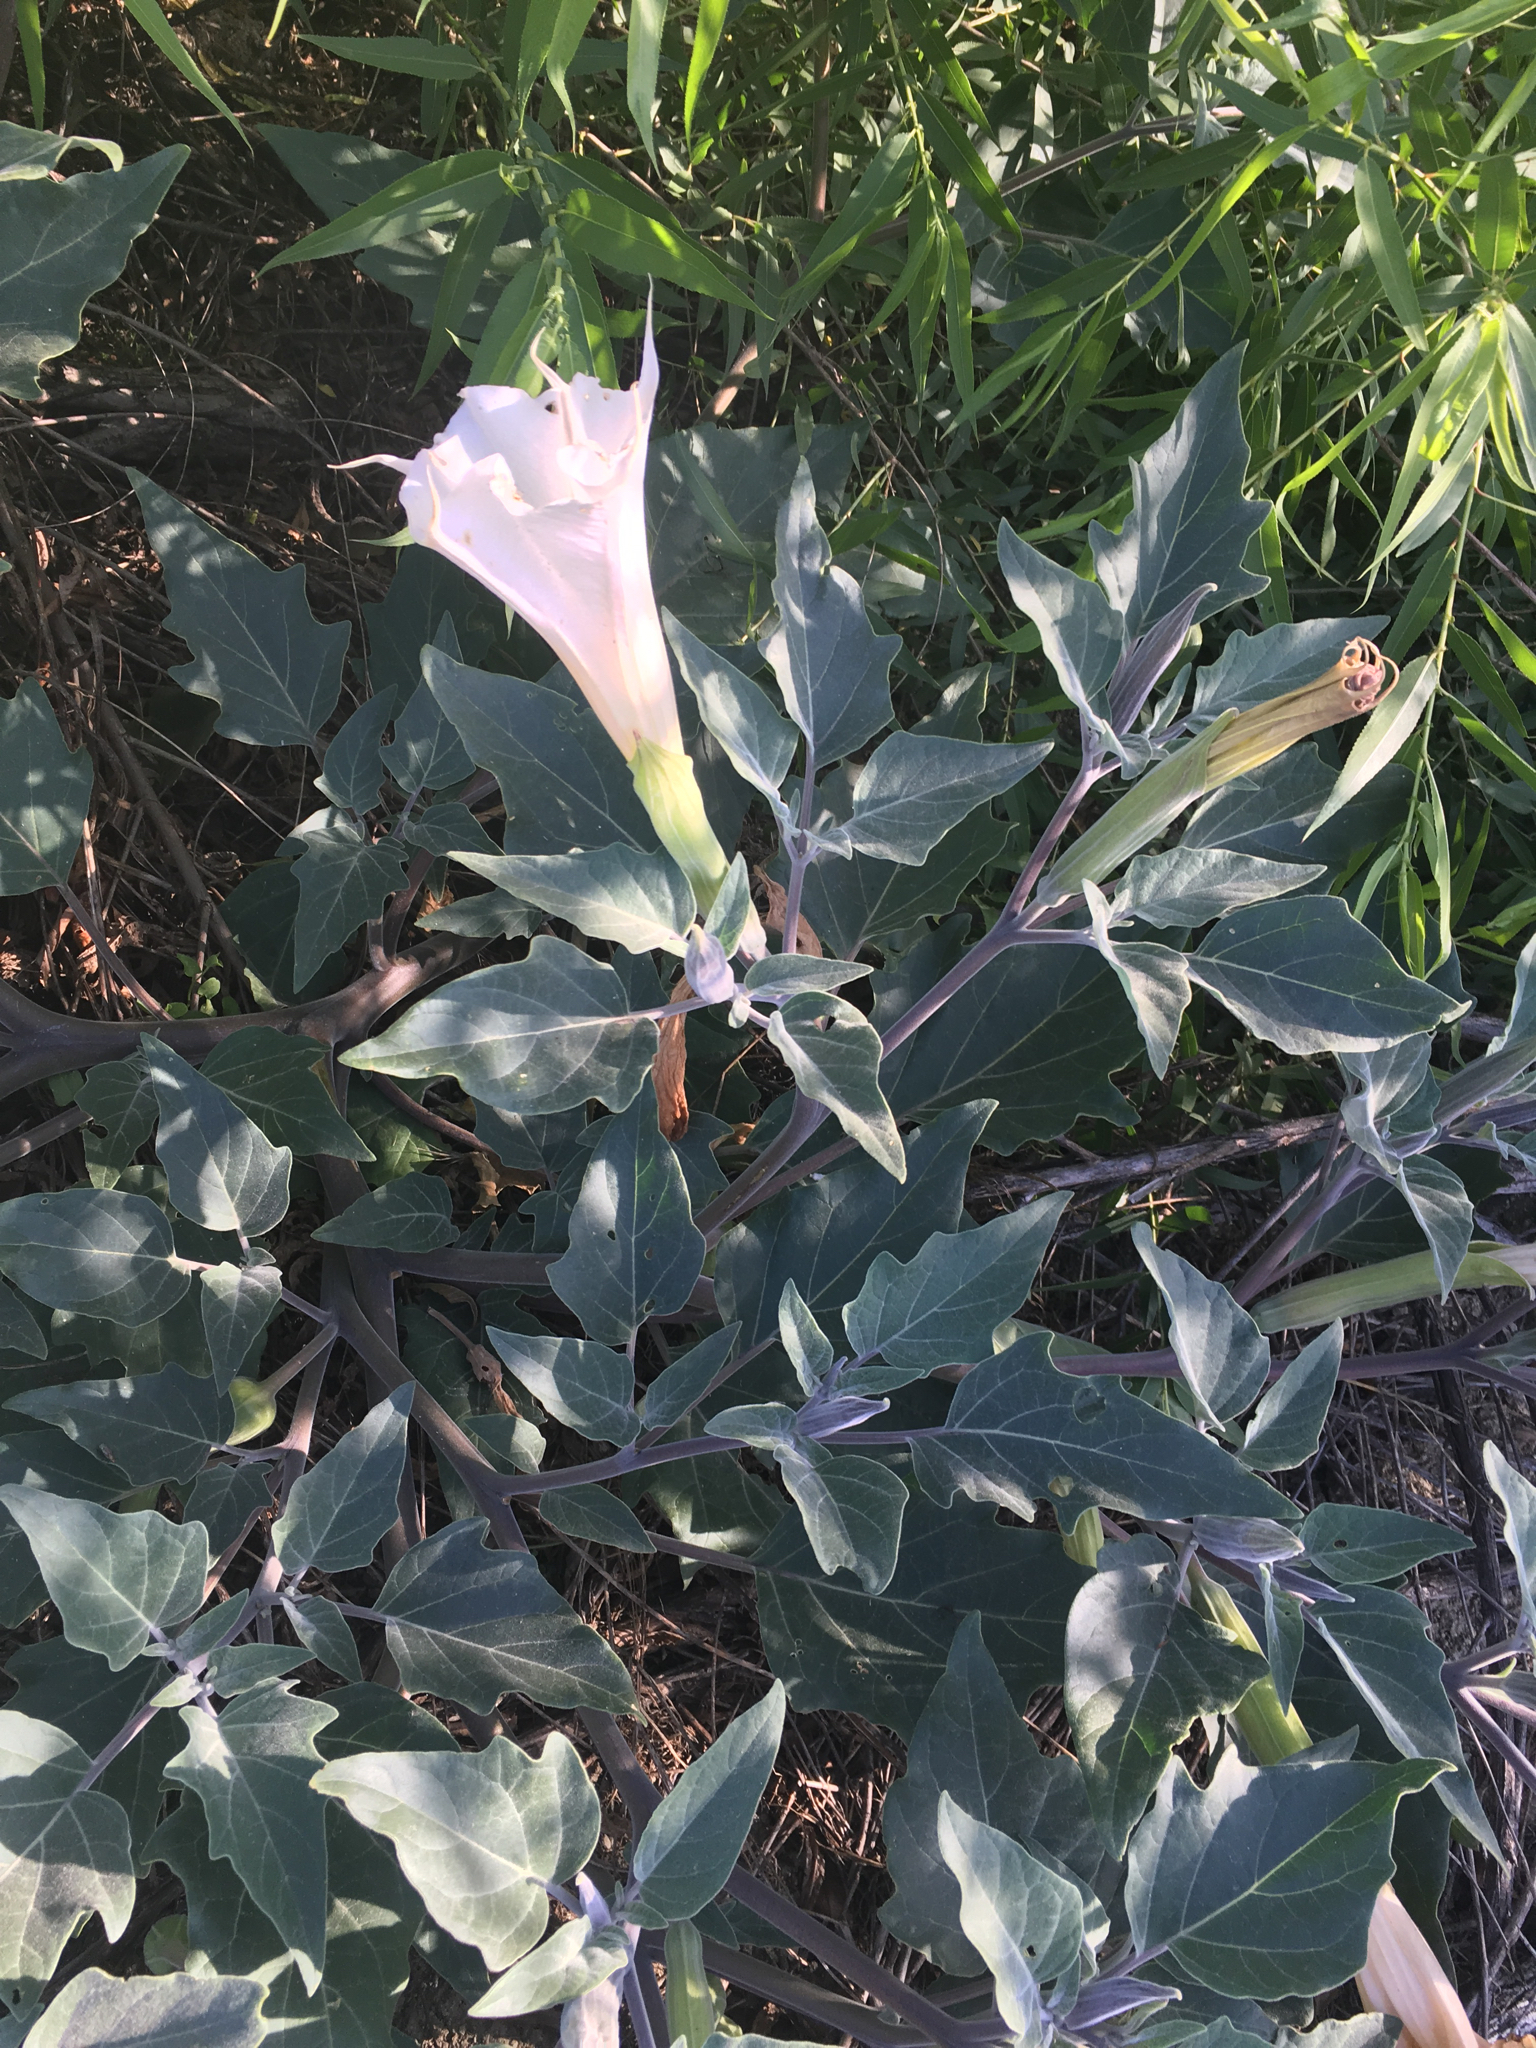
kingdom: Plantae
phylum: Tracheophyta
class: Magnoliopsida
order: Solanales
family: Solanaceae
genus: Datura
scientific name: Datura wrightii
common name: Sacred thorn-apple
